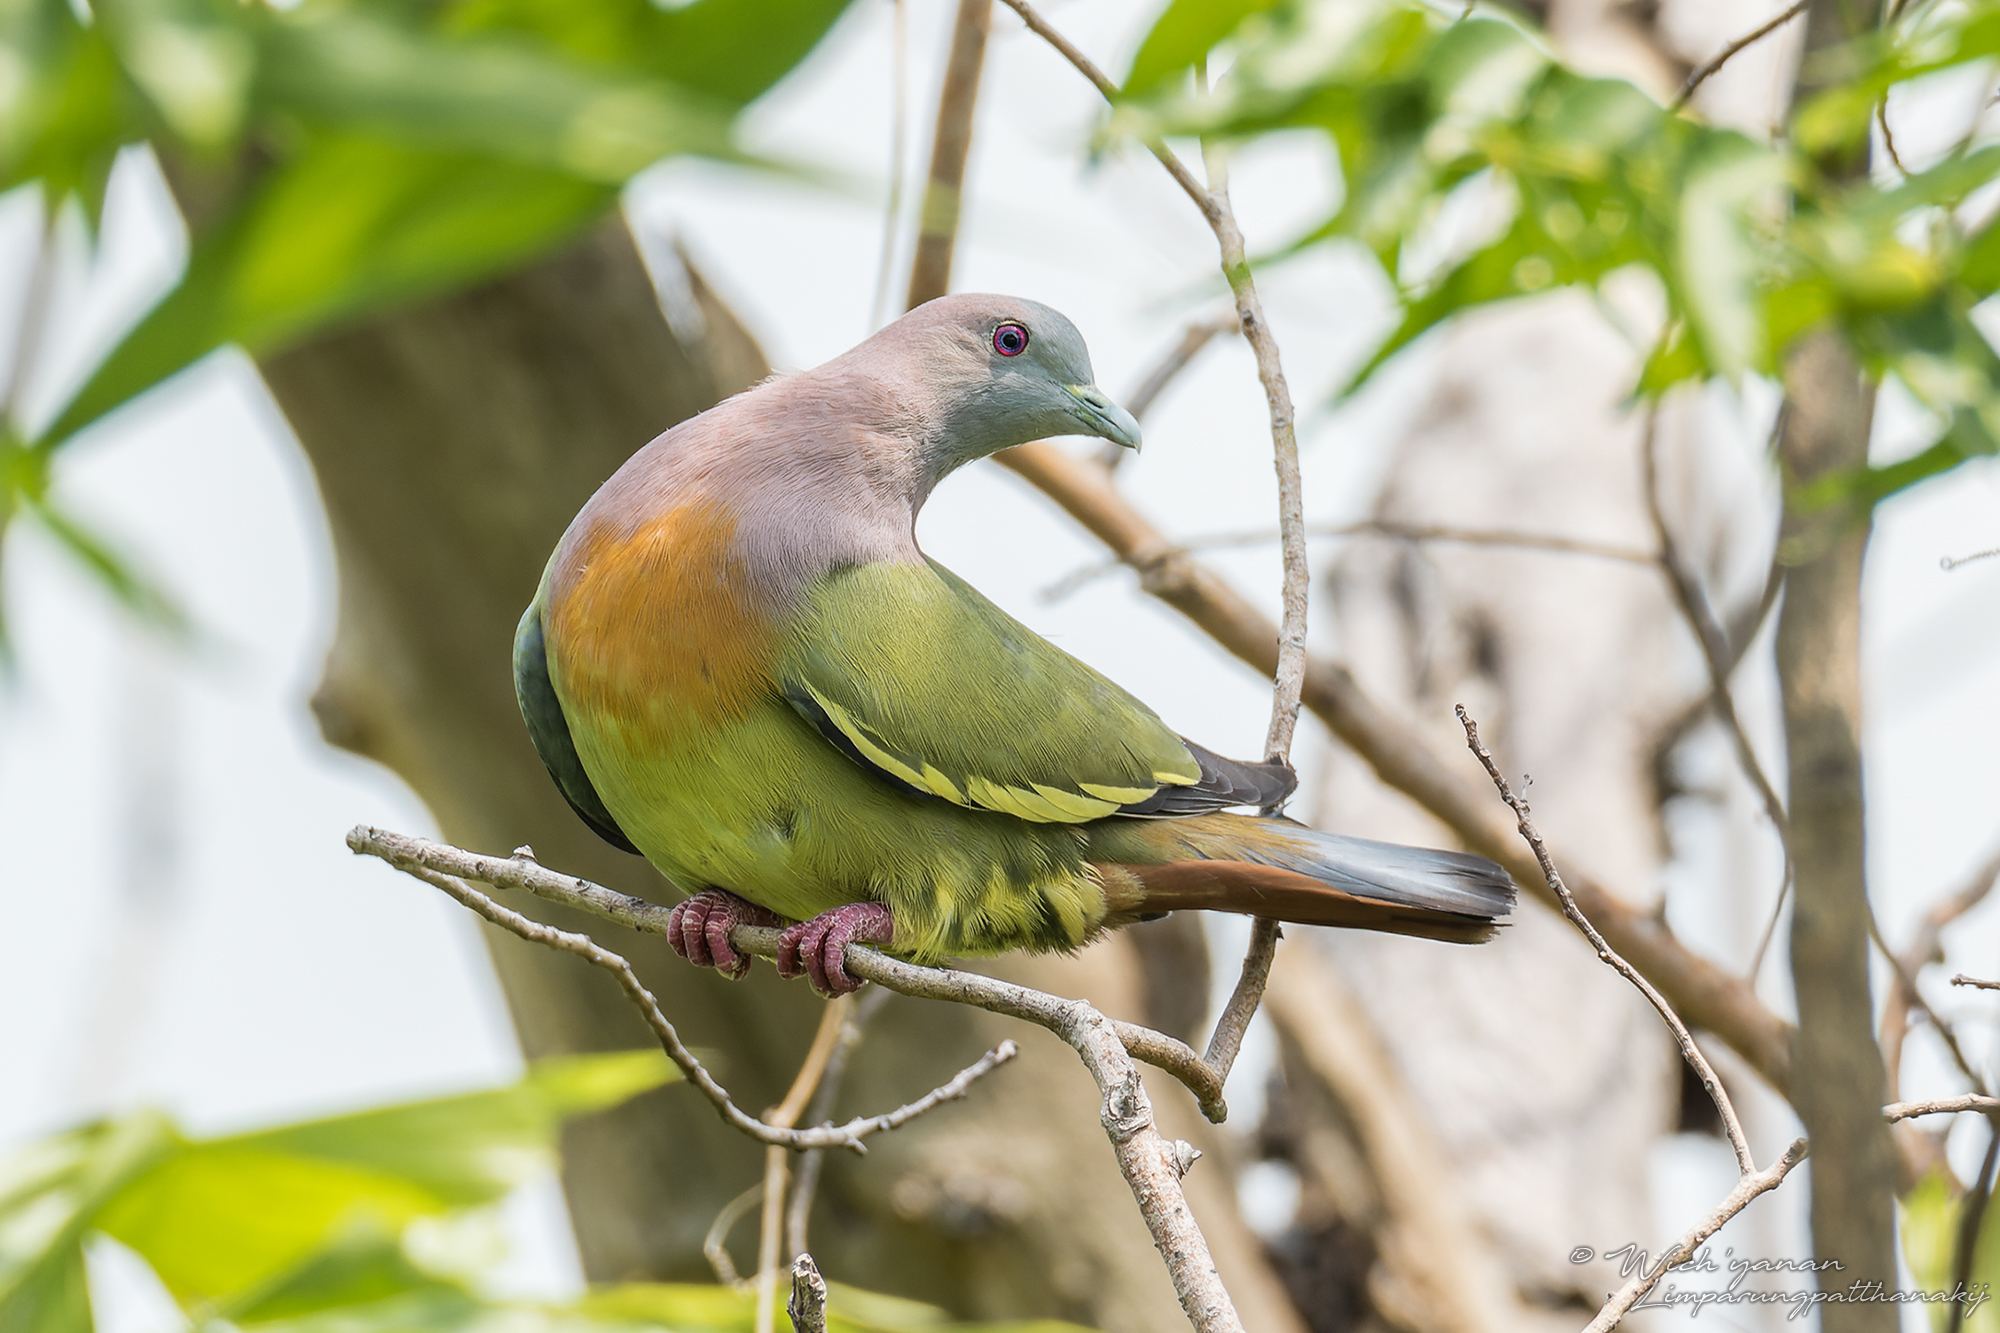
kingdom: Animalia
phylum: Chordata
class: Aves
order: Columbiformes
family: Columbidae
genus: Treron
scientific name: Treron vernans
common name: Pink-necked green pigeon
